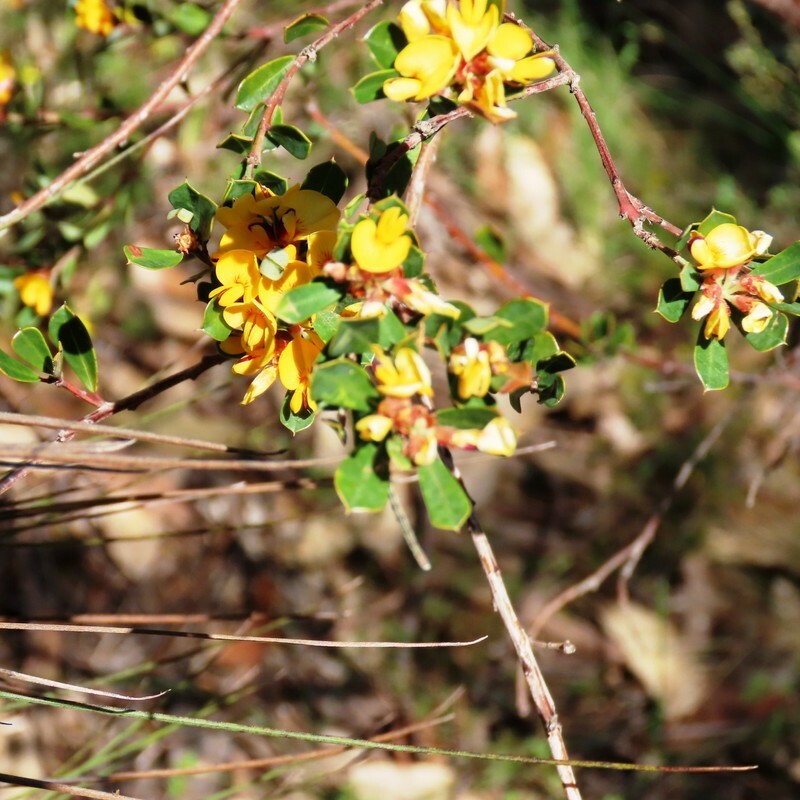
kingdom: Plantae
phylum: Tracheophyta
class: Magnoliopsida
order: Fabales
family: Fabaceae
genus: Pultenaea
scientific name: Pultenaea daphnoides
